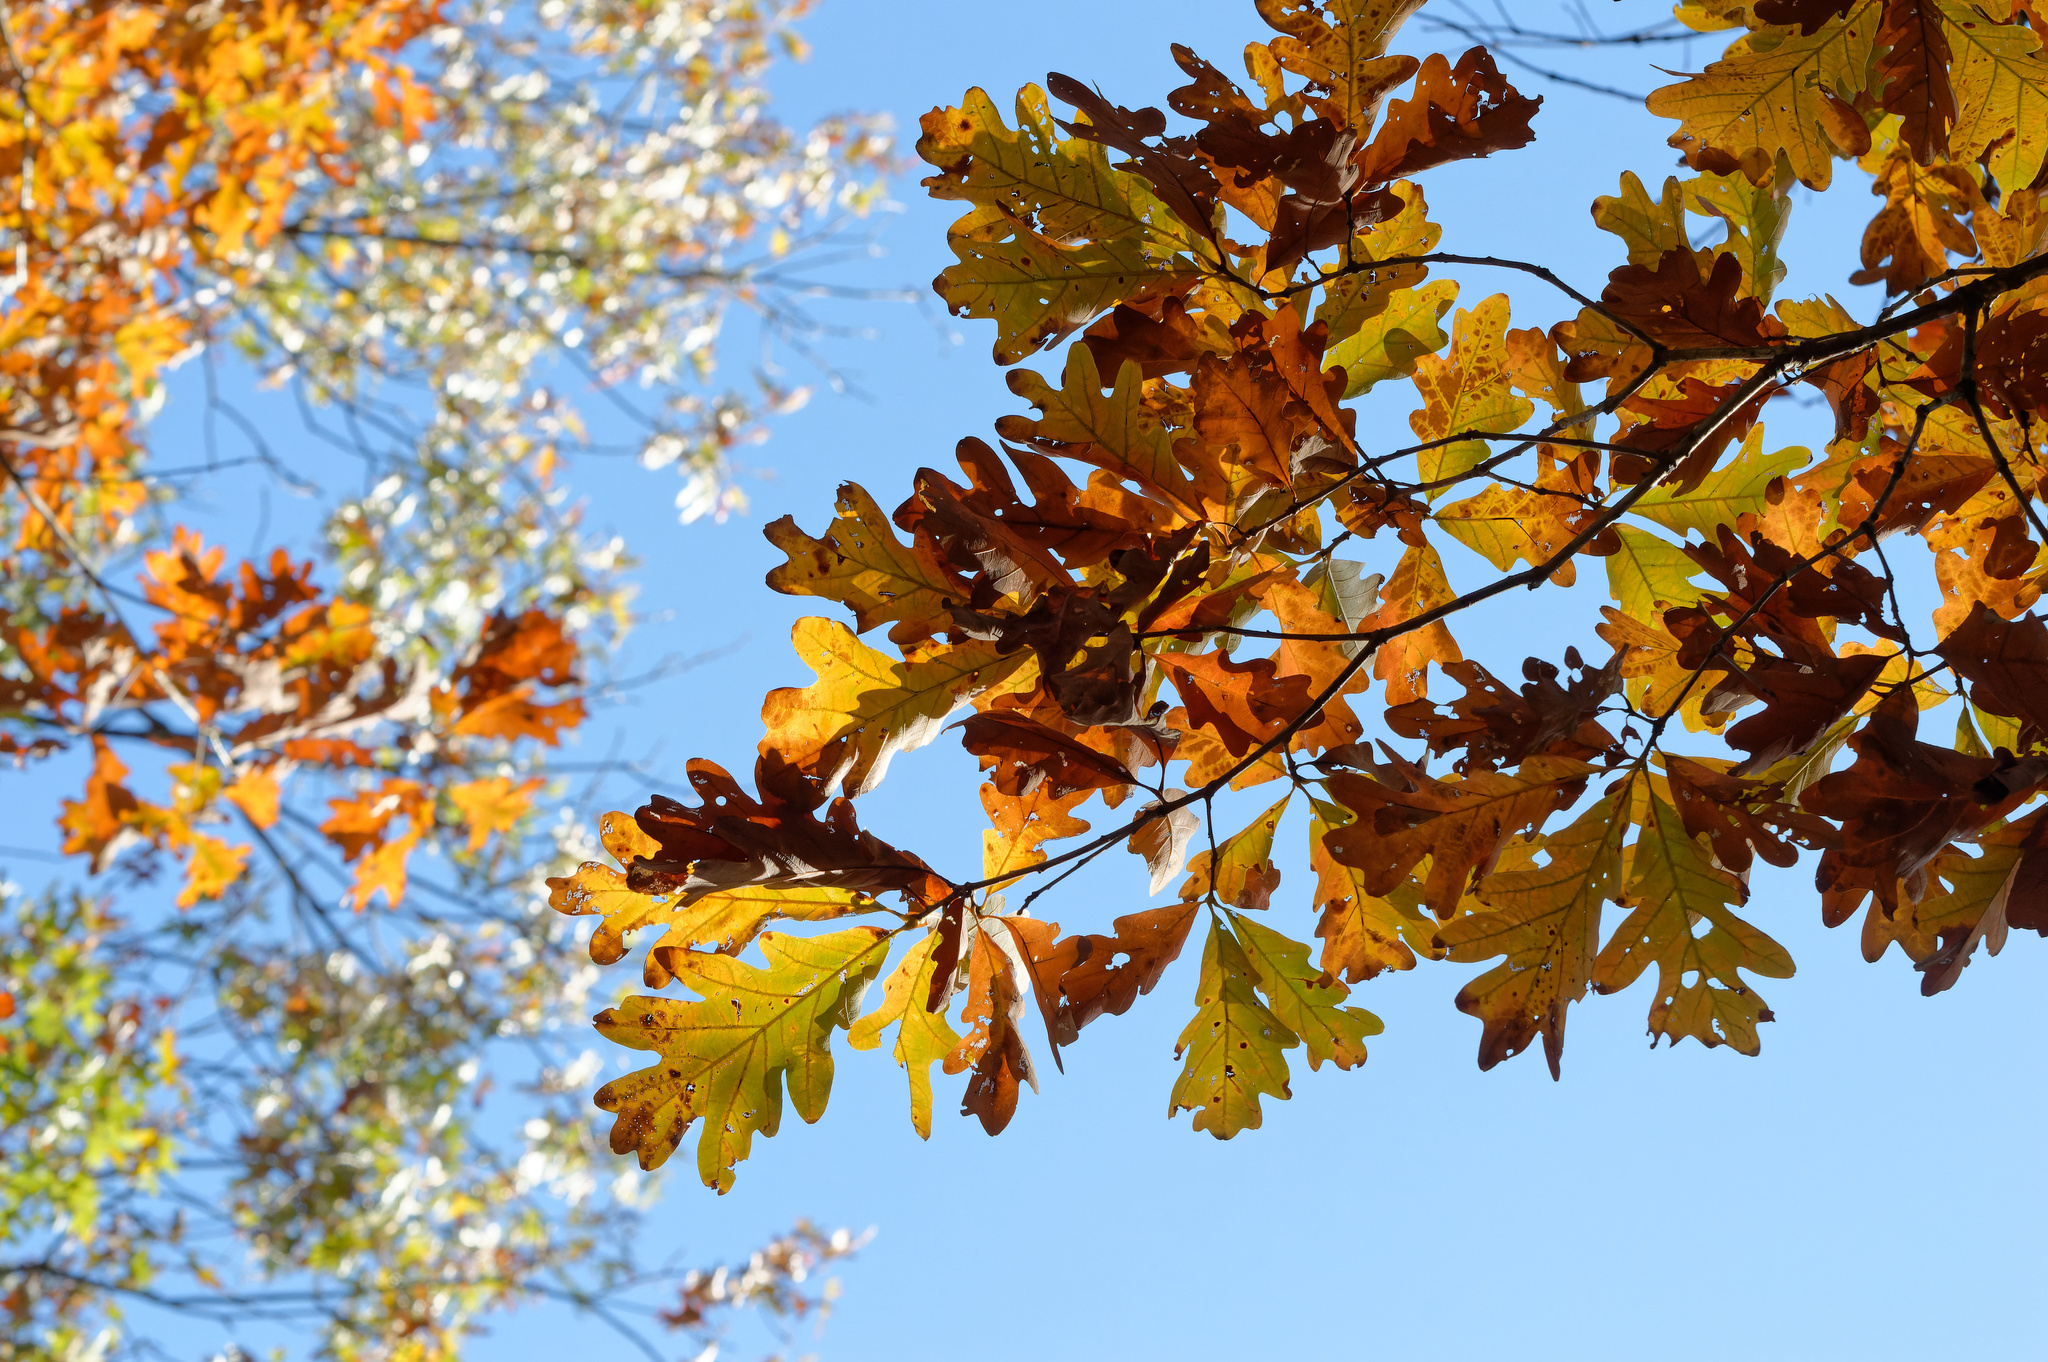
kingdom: Plantae
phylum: Tracheophyta
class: Magnoliopsida
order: Fagales
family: Fagaceae
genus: Quercus
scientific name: Quercus alba
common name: White oak
